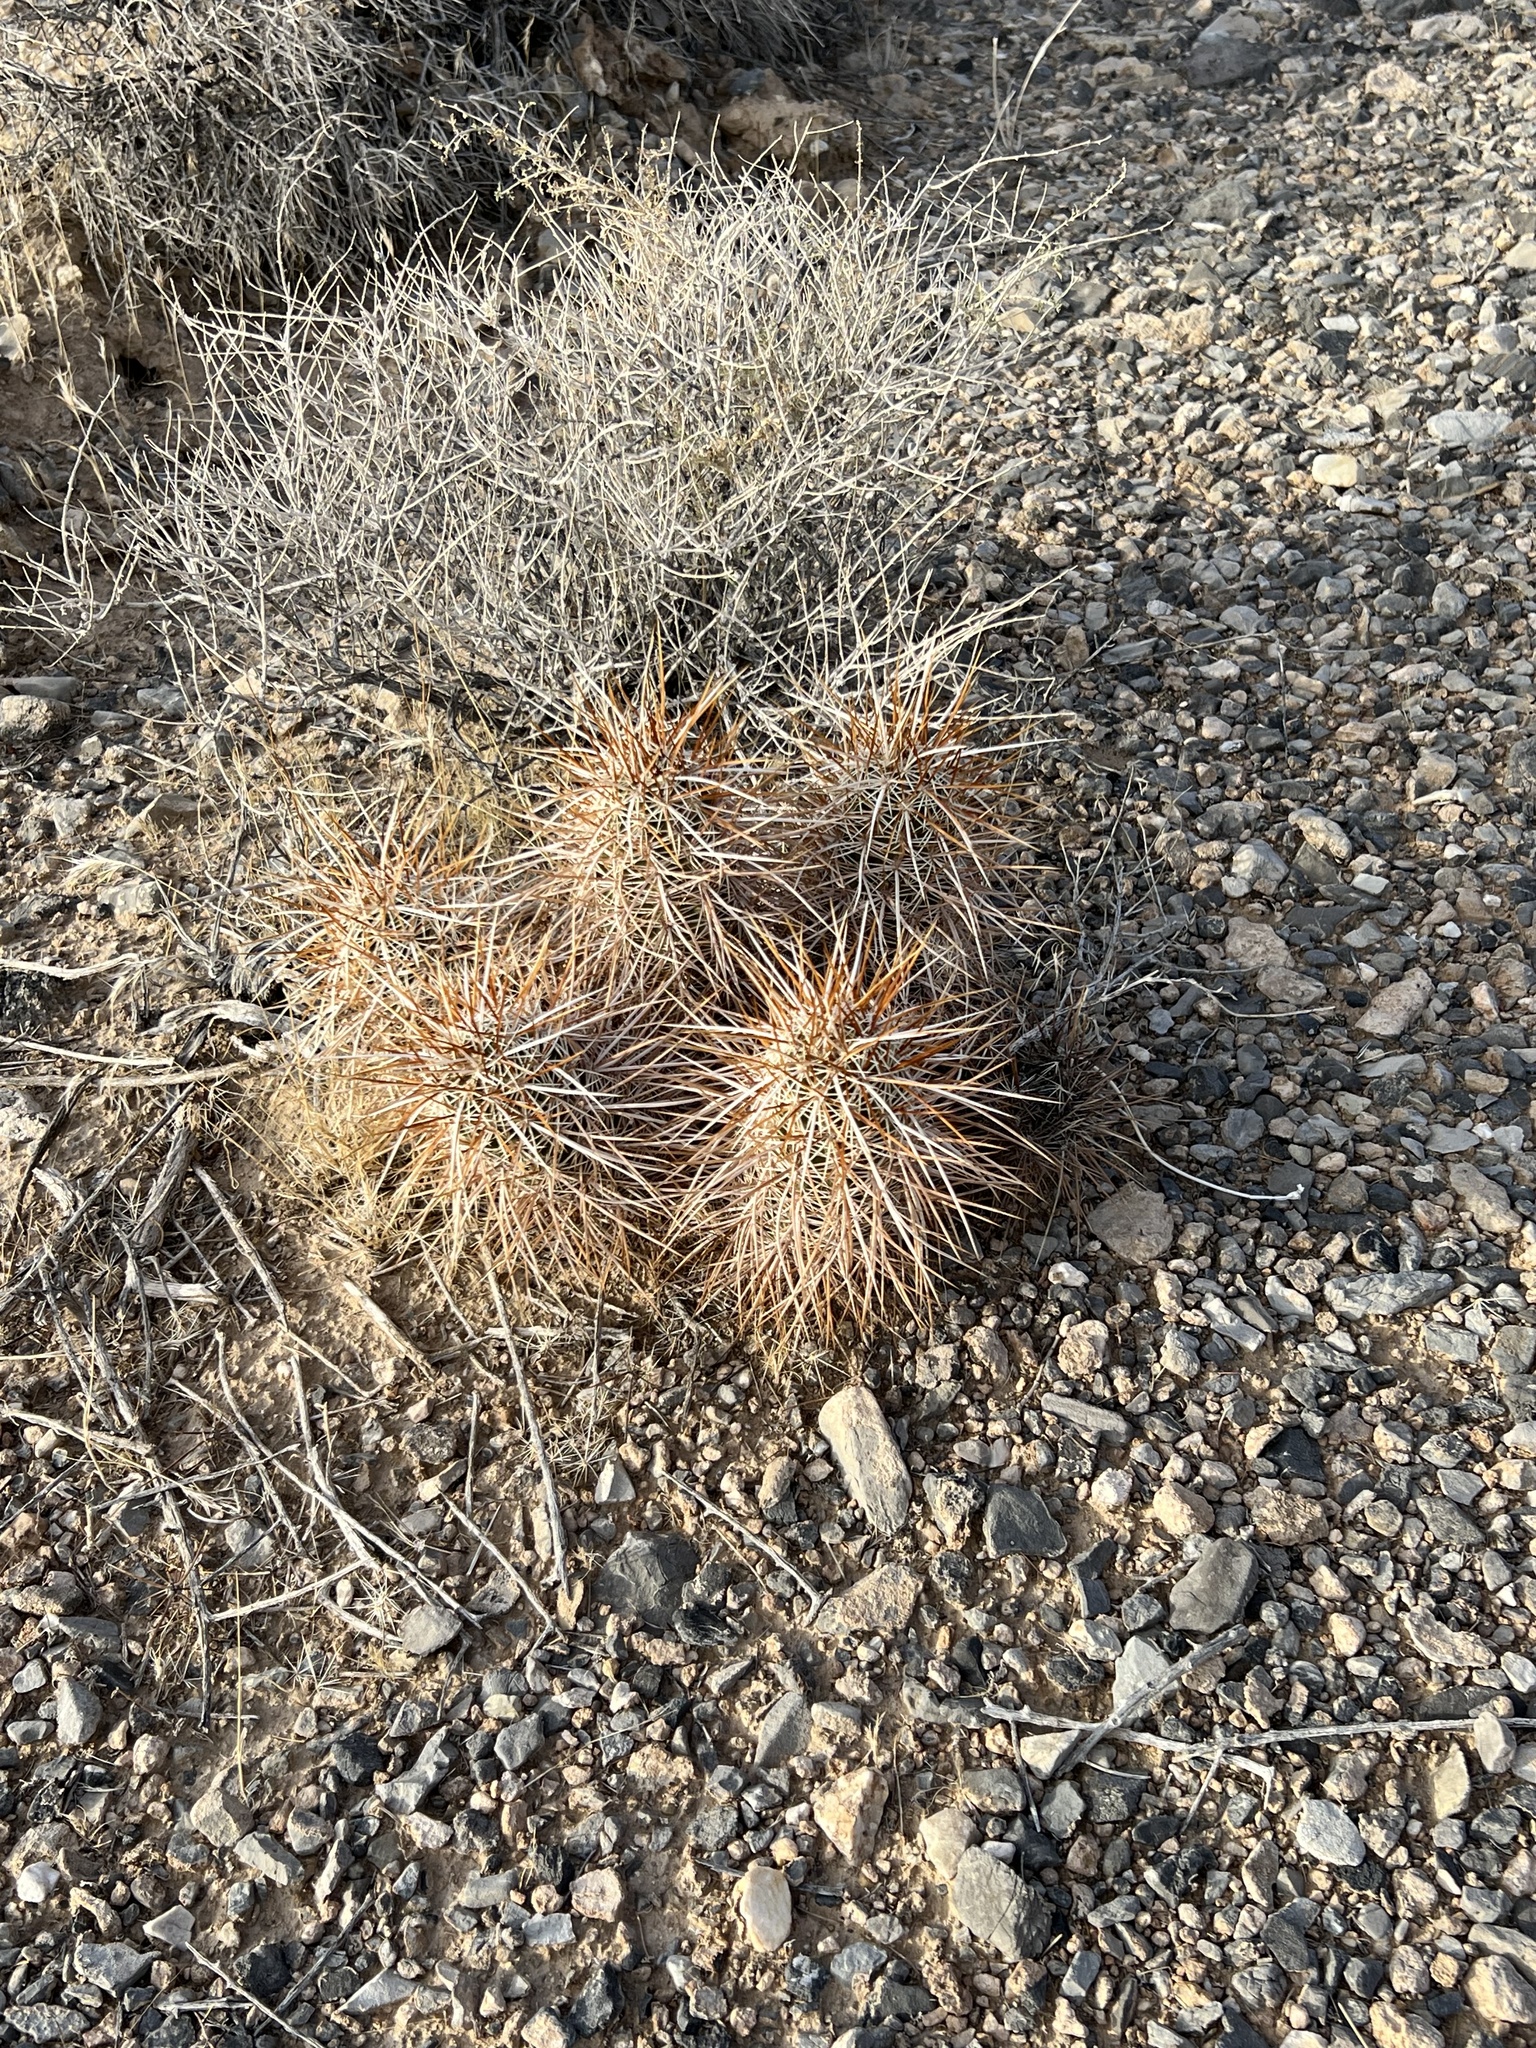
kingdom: Plantae
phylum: Tracheophyta
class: Magnoliopsida
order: Caryophyllales
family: Cactaceae
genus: Echinocereus
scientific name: Echinocereus engelmannii
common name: Engelmann's hedgehog cactus
